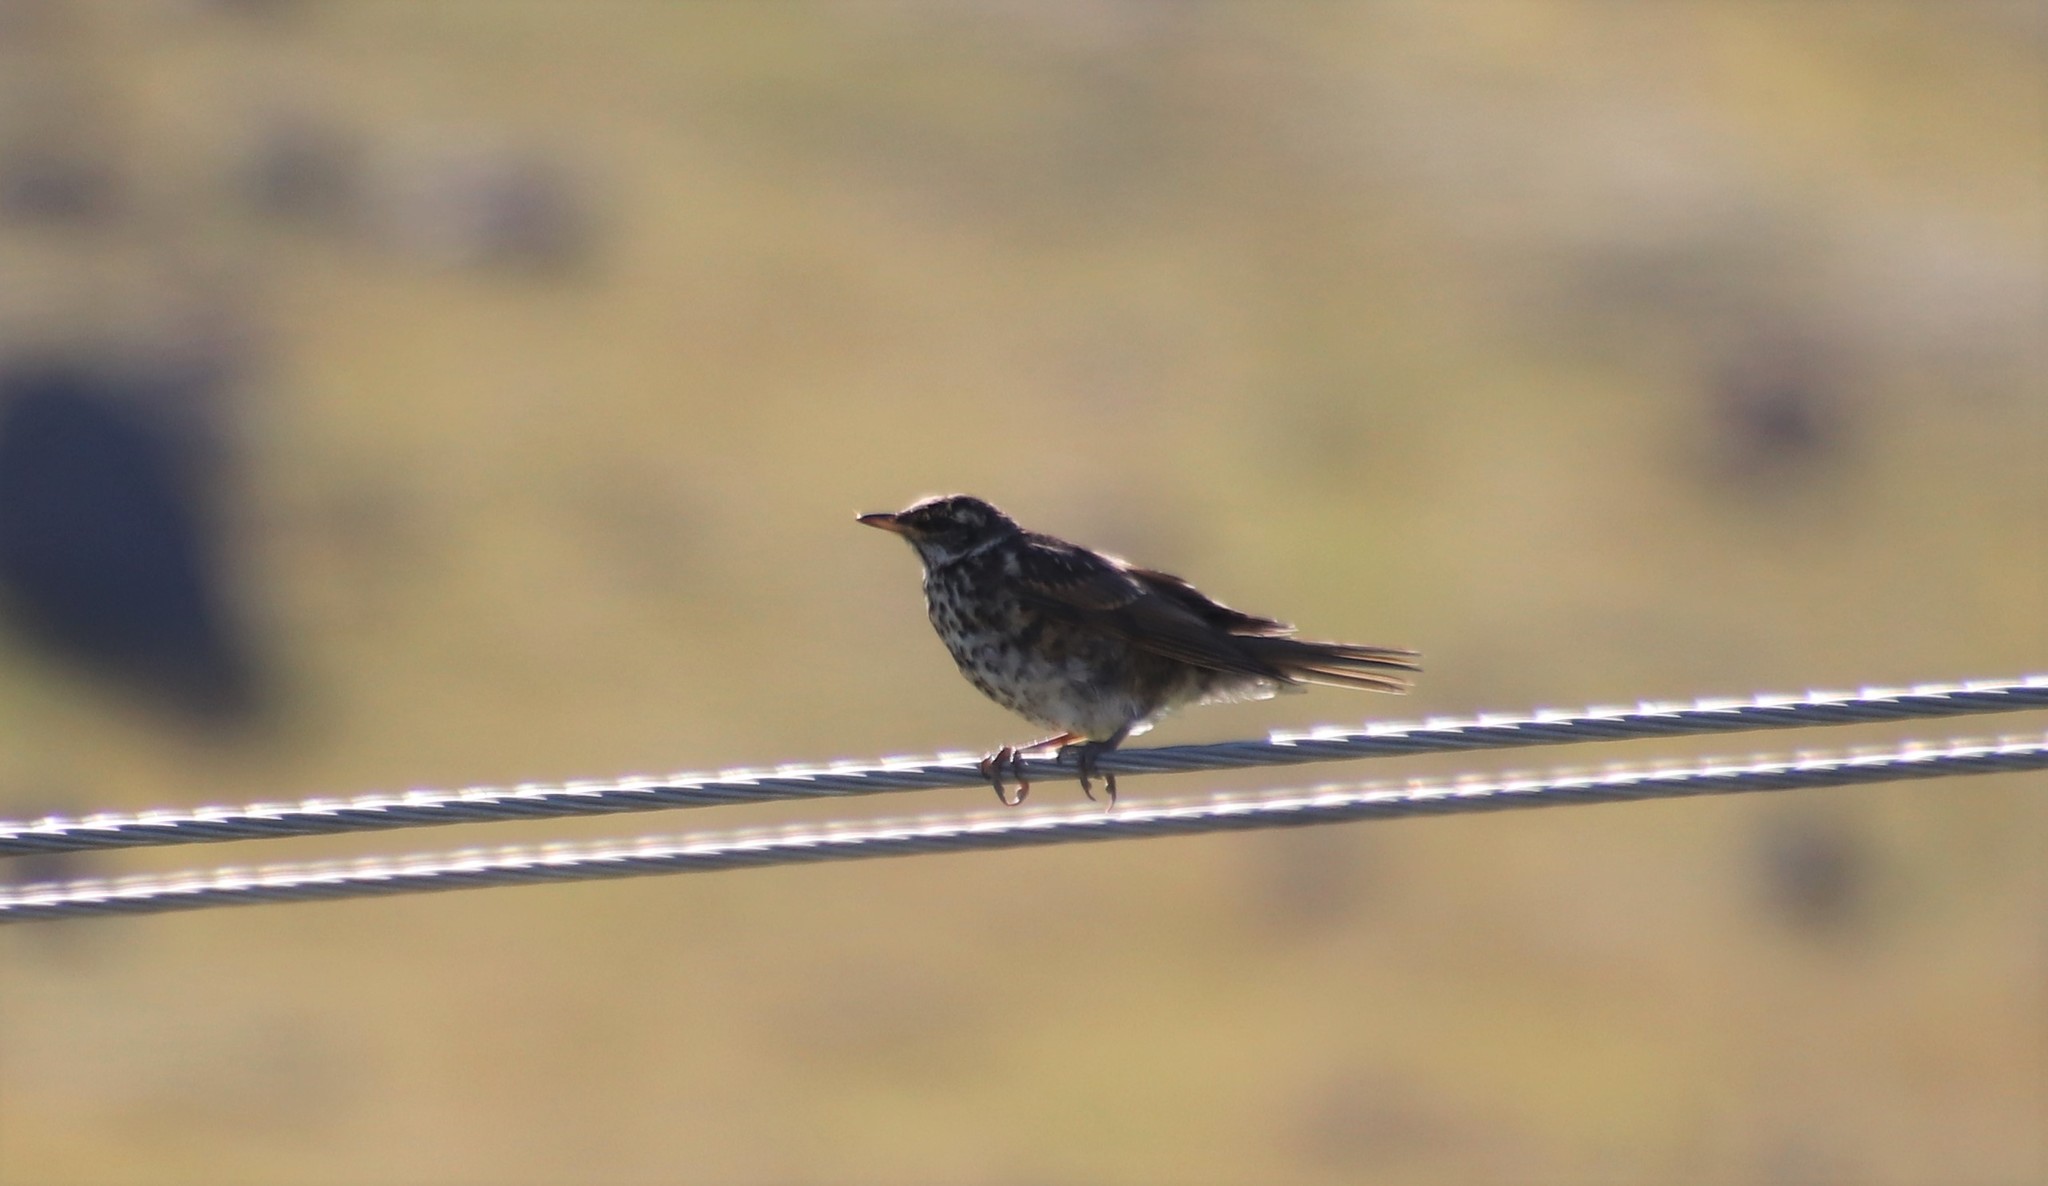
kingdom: Animalia
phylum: Chordata
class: Aves
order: Passeriformes
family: Turdidae
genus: Turdus
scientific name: Turdus iliacus
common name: Redwing
